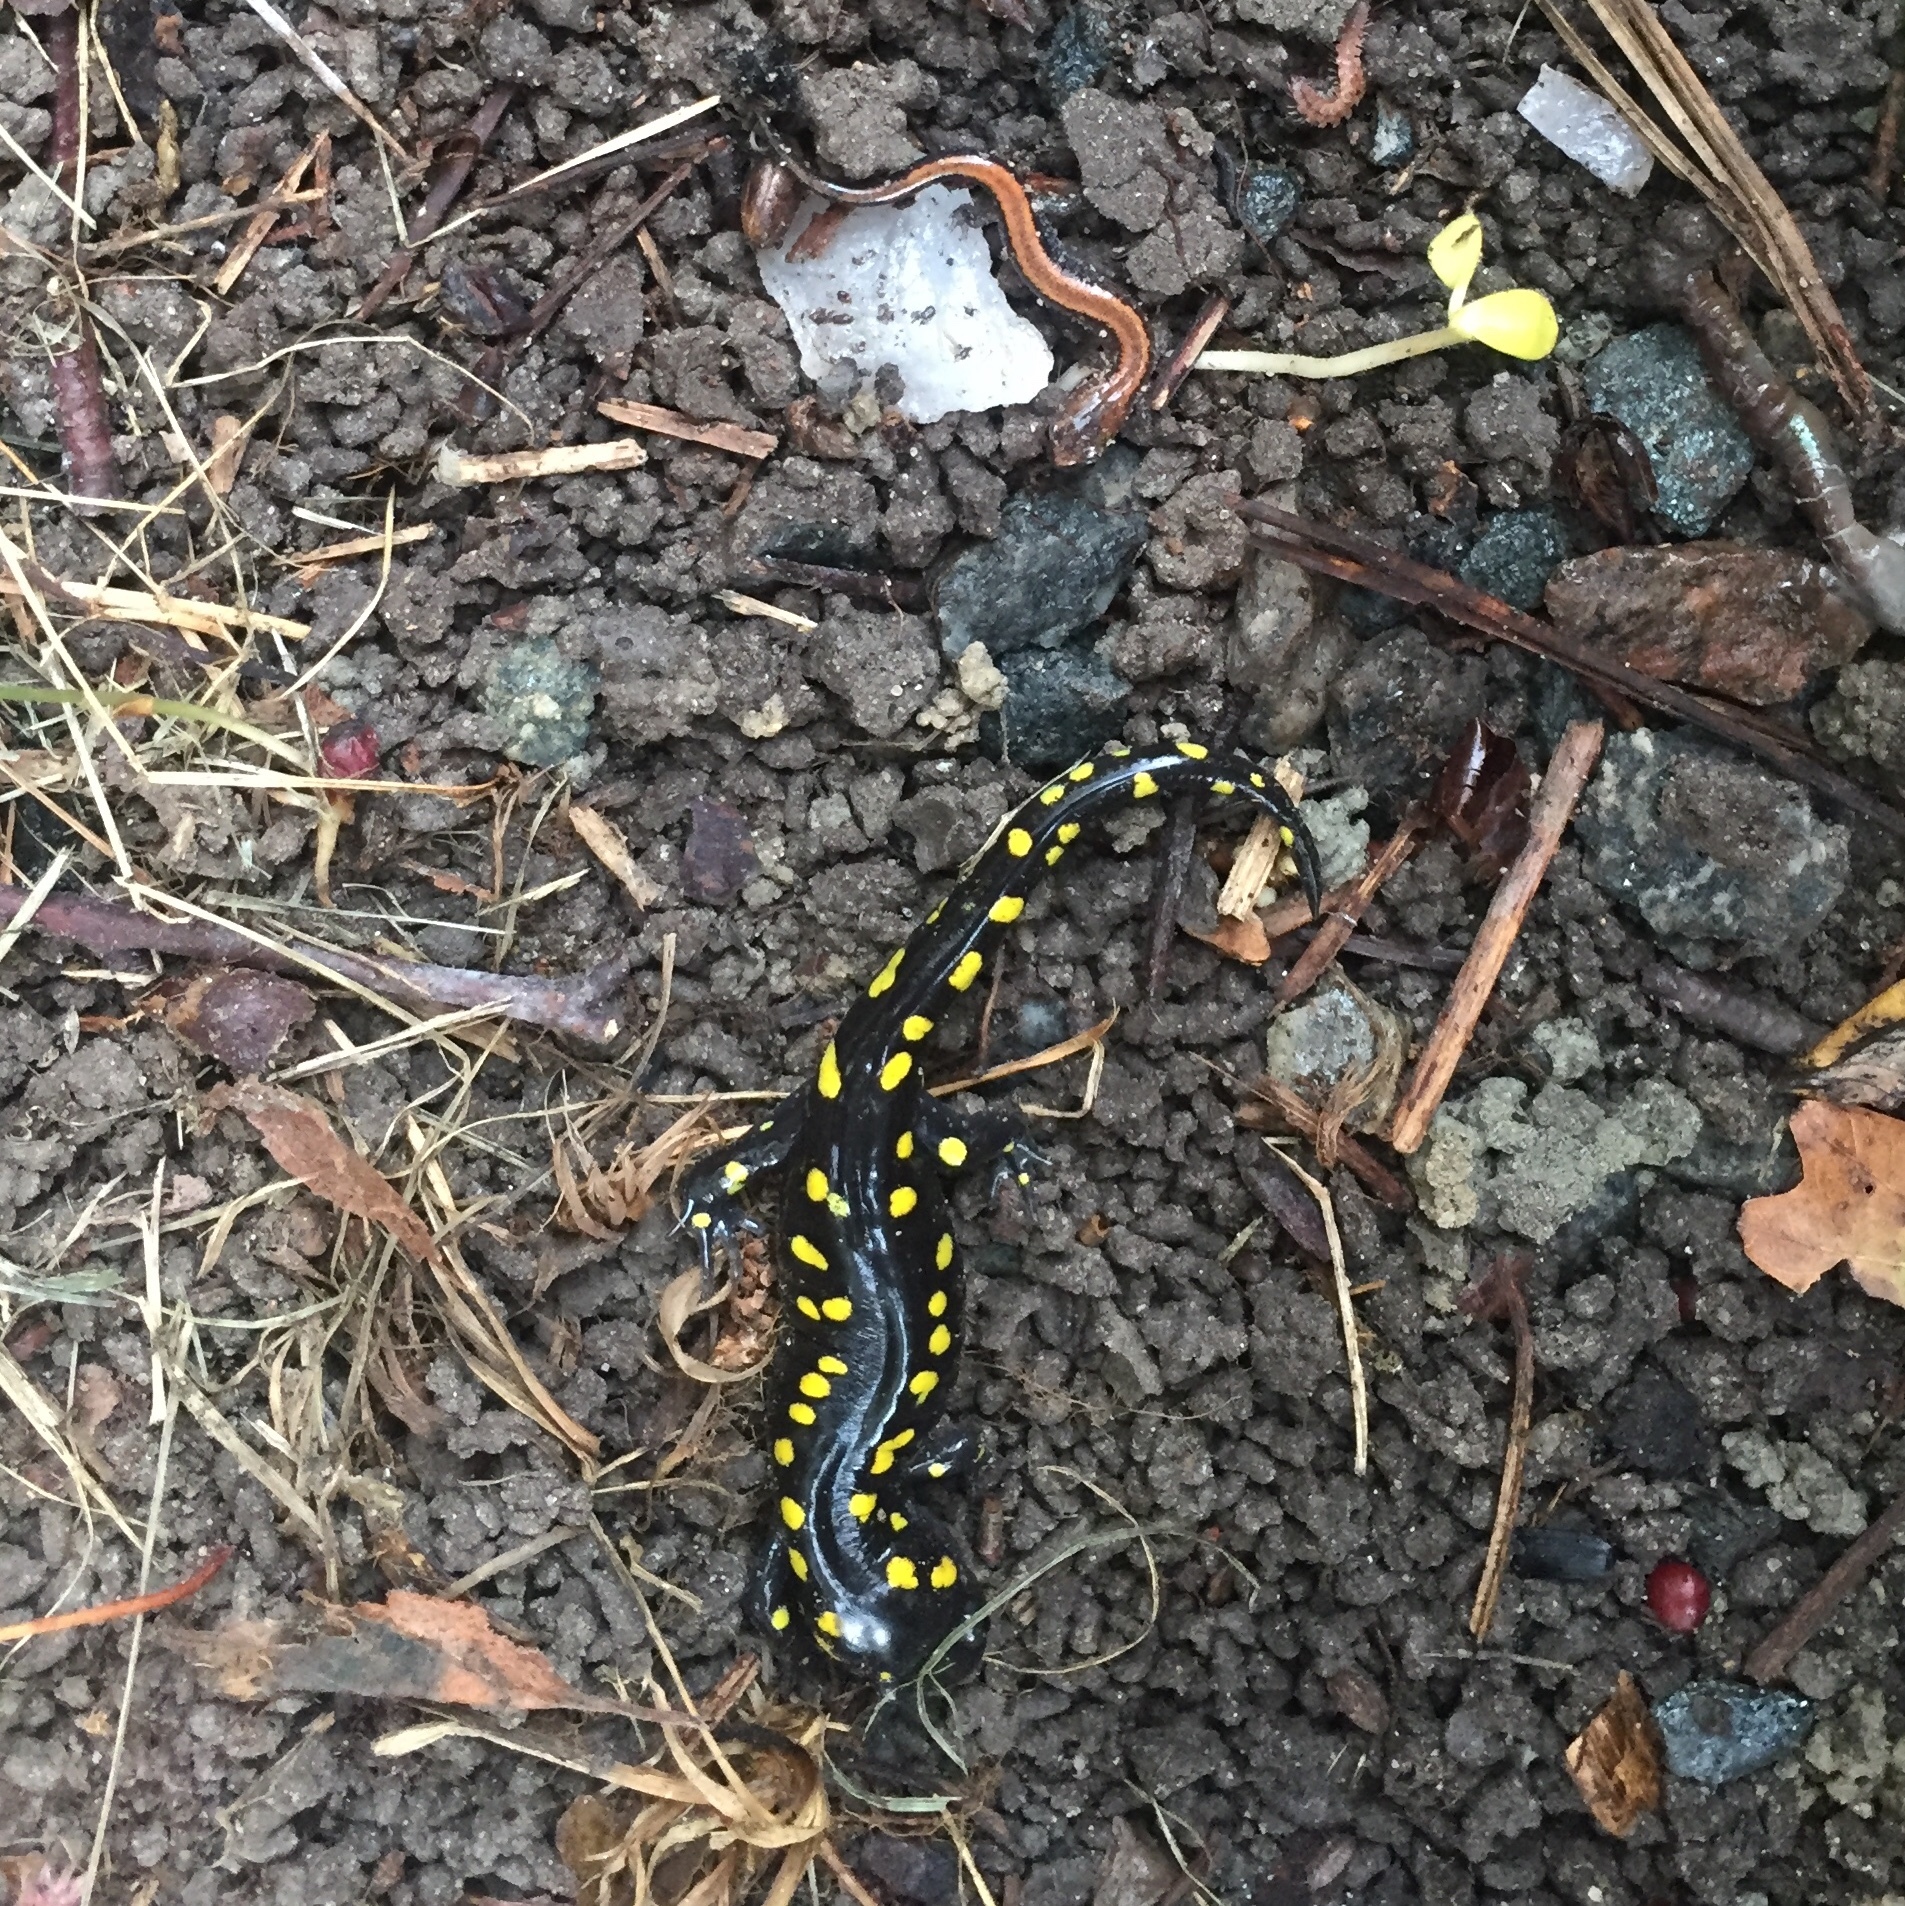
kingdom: Animalia
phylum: Chordata
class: Amphibia
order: Caudata
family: Plethodontidae
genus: Plethodon
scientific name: Plethodon cinereus
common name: Redback salamander
